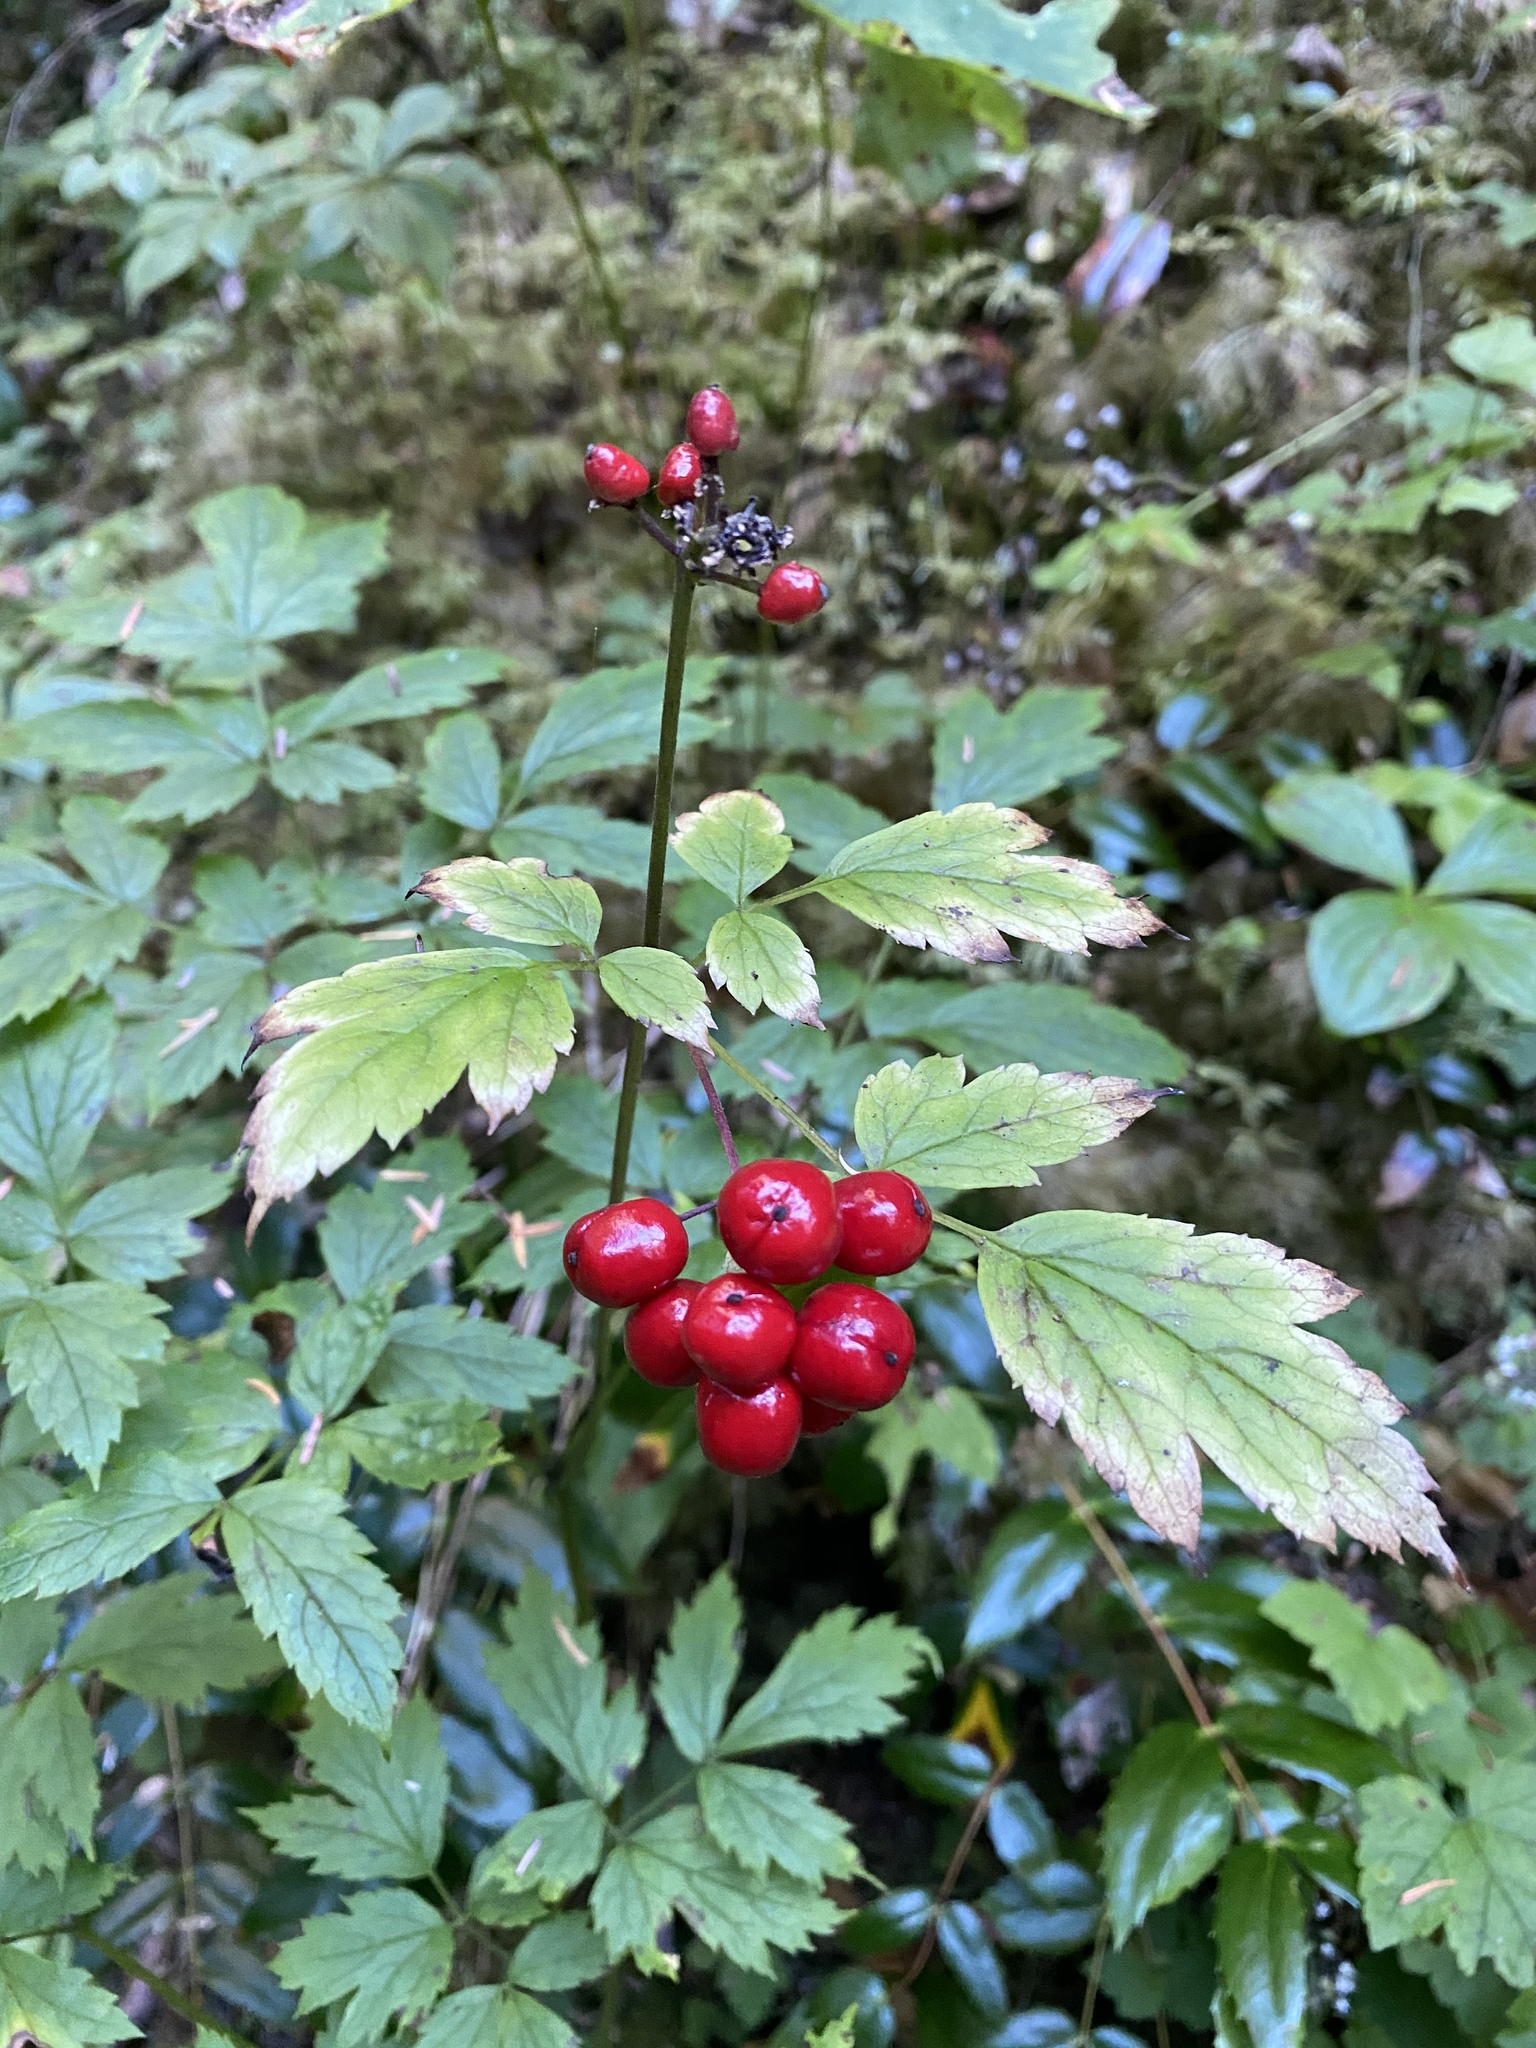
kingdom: Plantae
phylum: Tracheophyta
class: Magnoliopsida
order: Ranunculales
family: Ranunculaceae
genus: Actaea
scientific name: Actaea rubra
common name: Red baneberry
